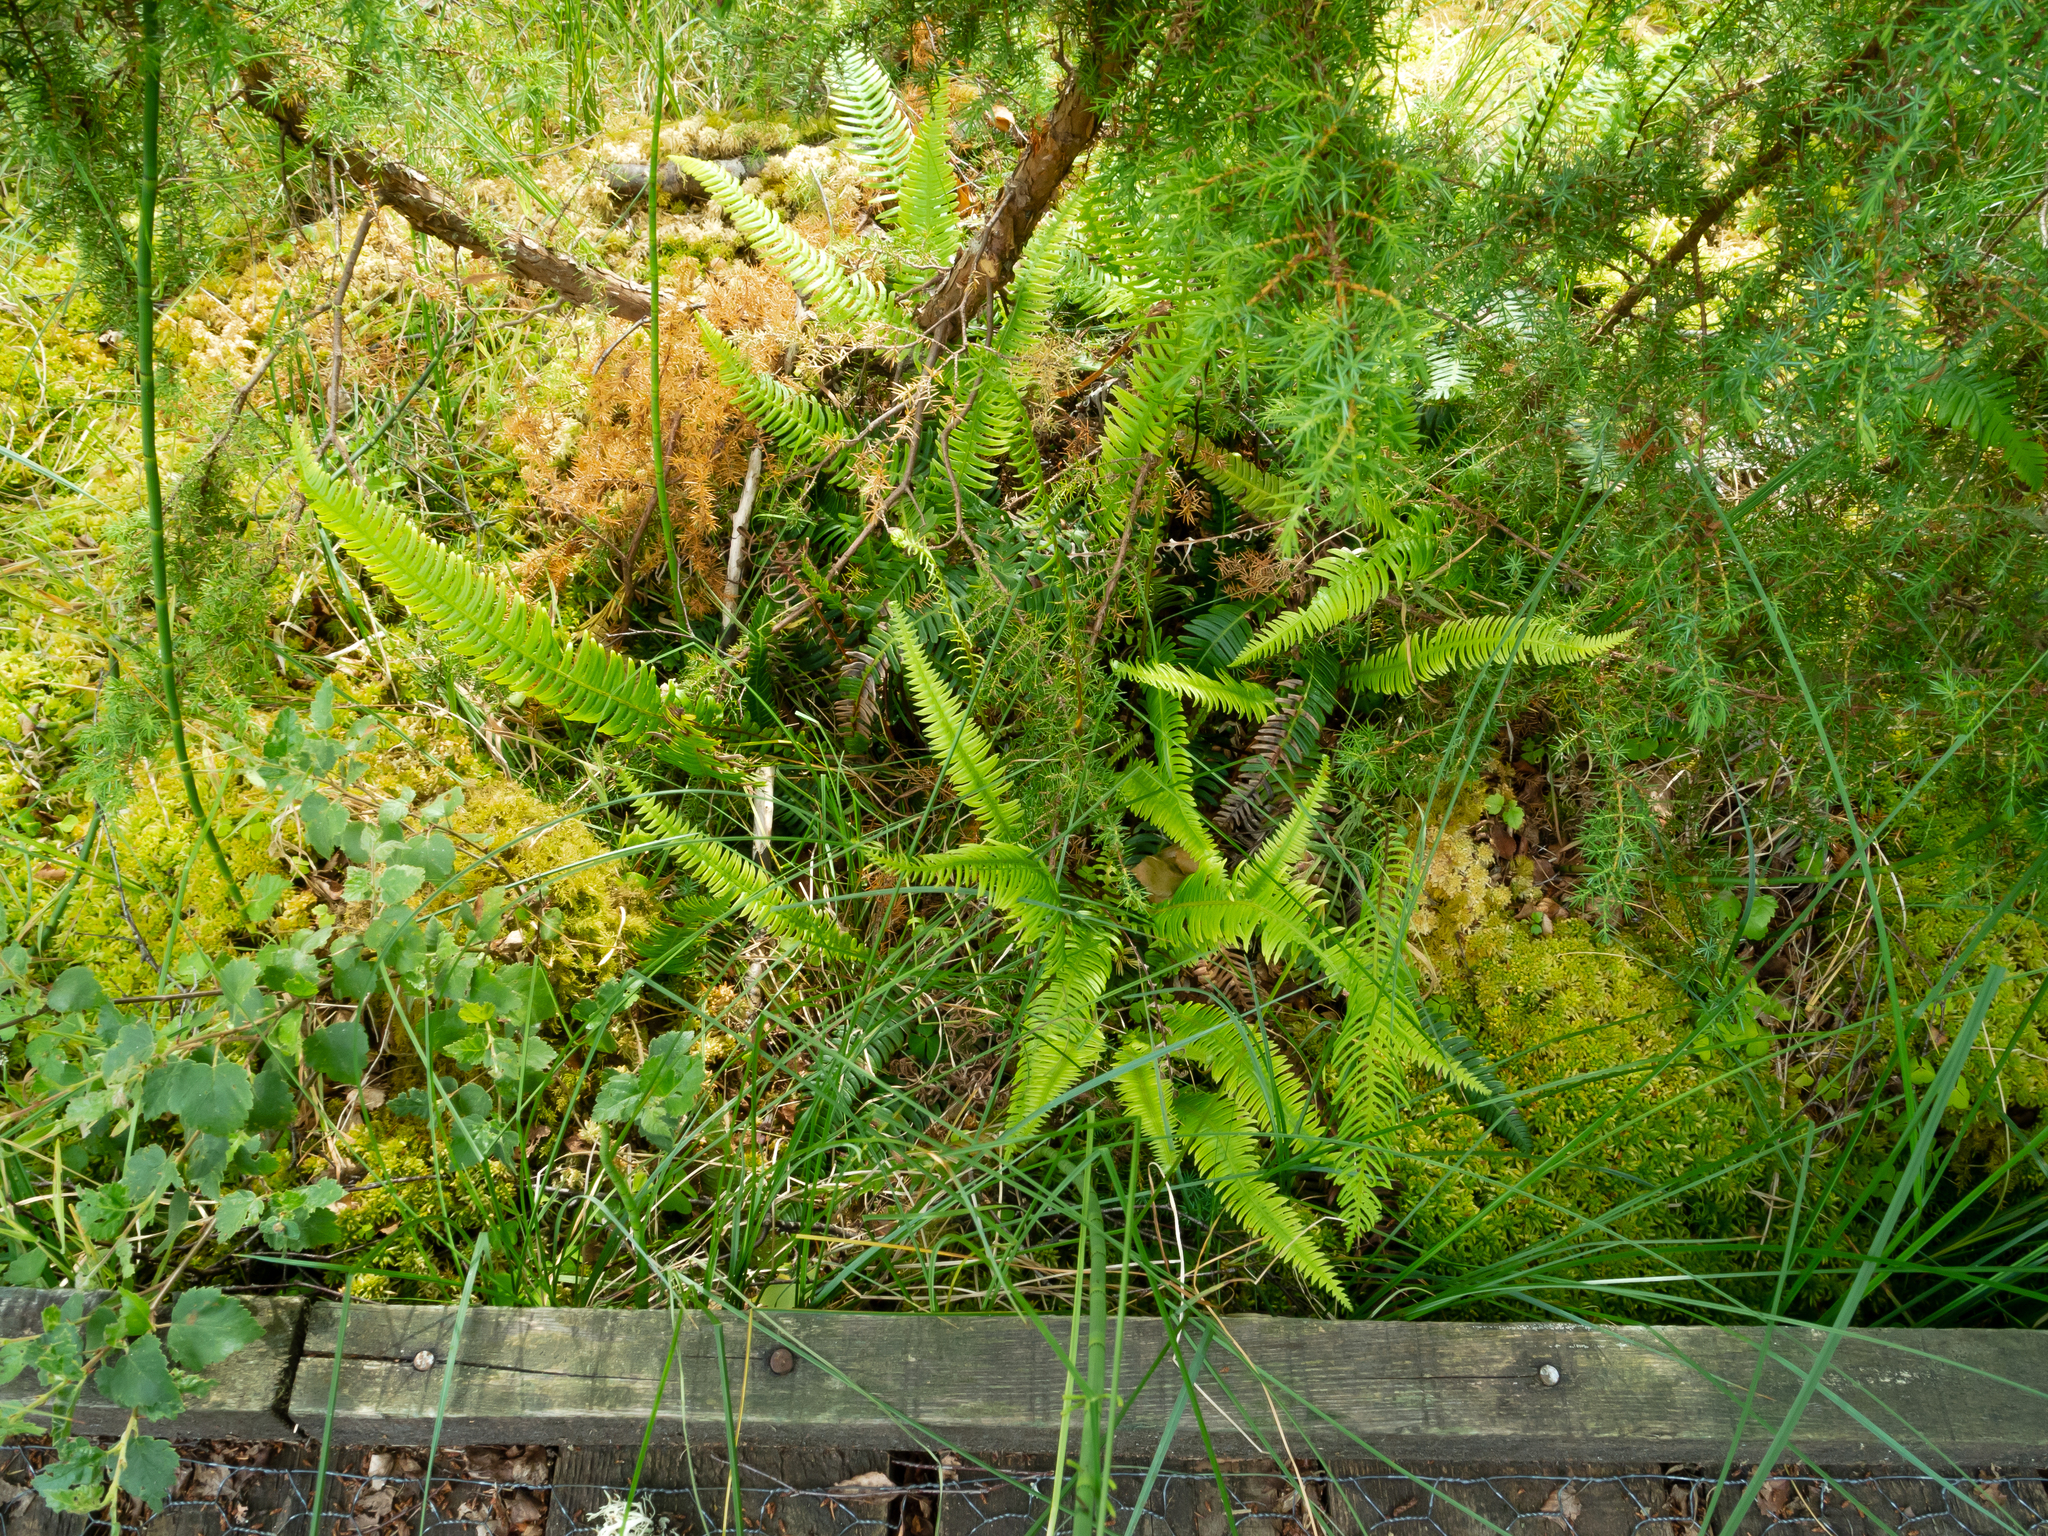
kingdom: Plantae
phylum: Tracheophyta
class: Magnoliopsida
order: Fagales
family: Betulaceae
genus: Betula
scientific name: Betula pubescens
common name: Downy birch
